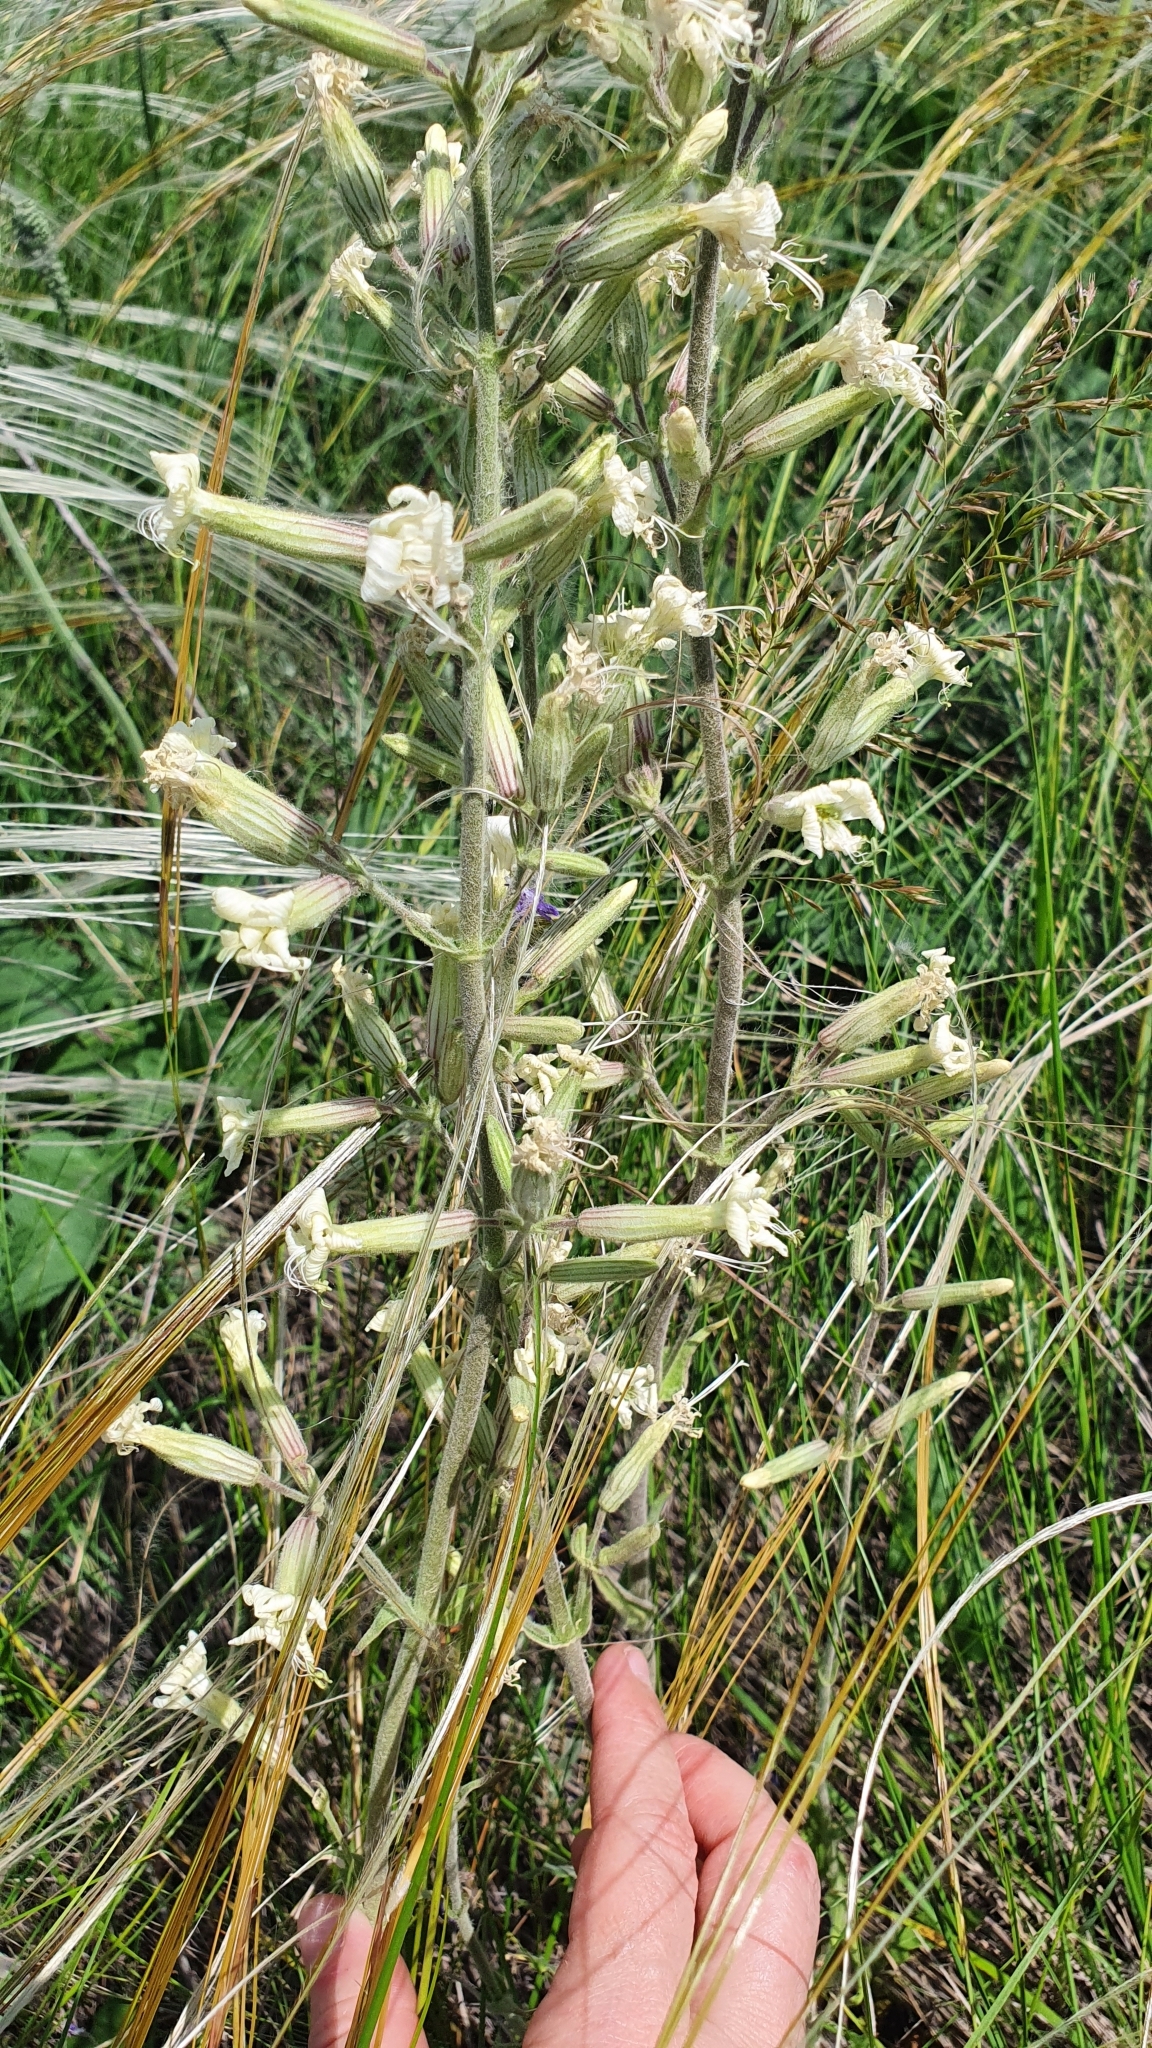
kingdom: Plantae
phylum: Tracheophyta
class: Magnoliopsida
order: Caryophyllales
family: Caryophyllaceae
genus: Silene
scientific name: Silene viscosa
